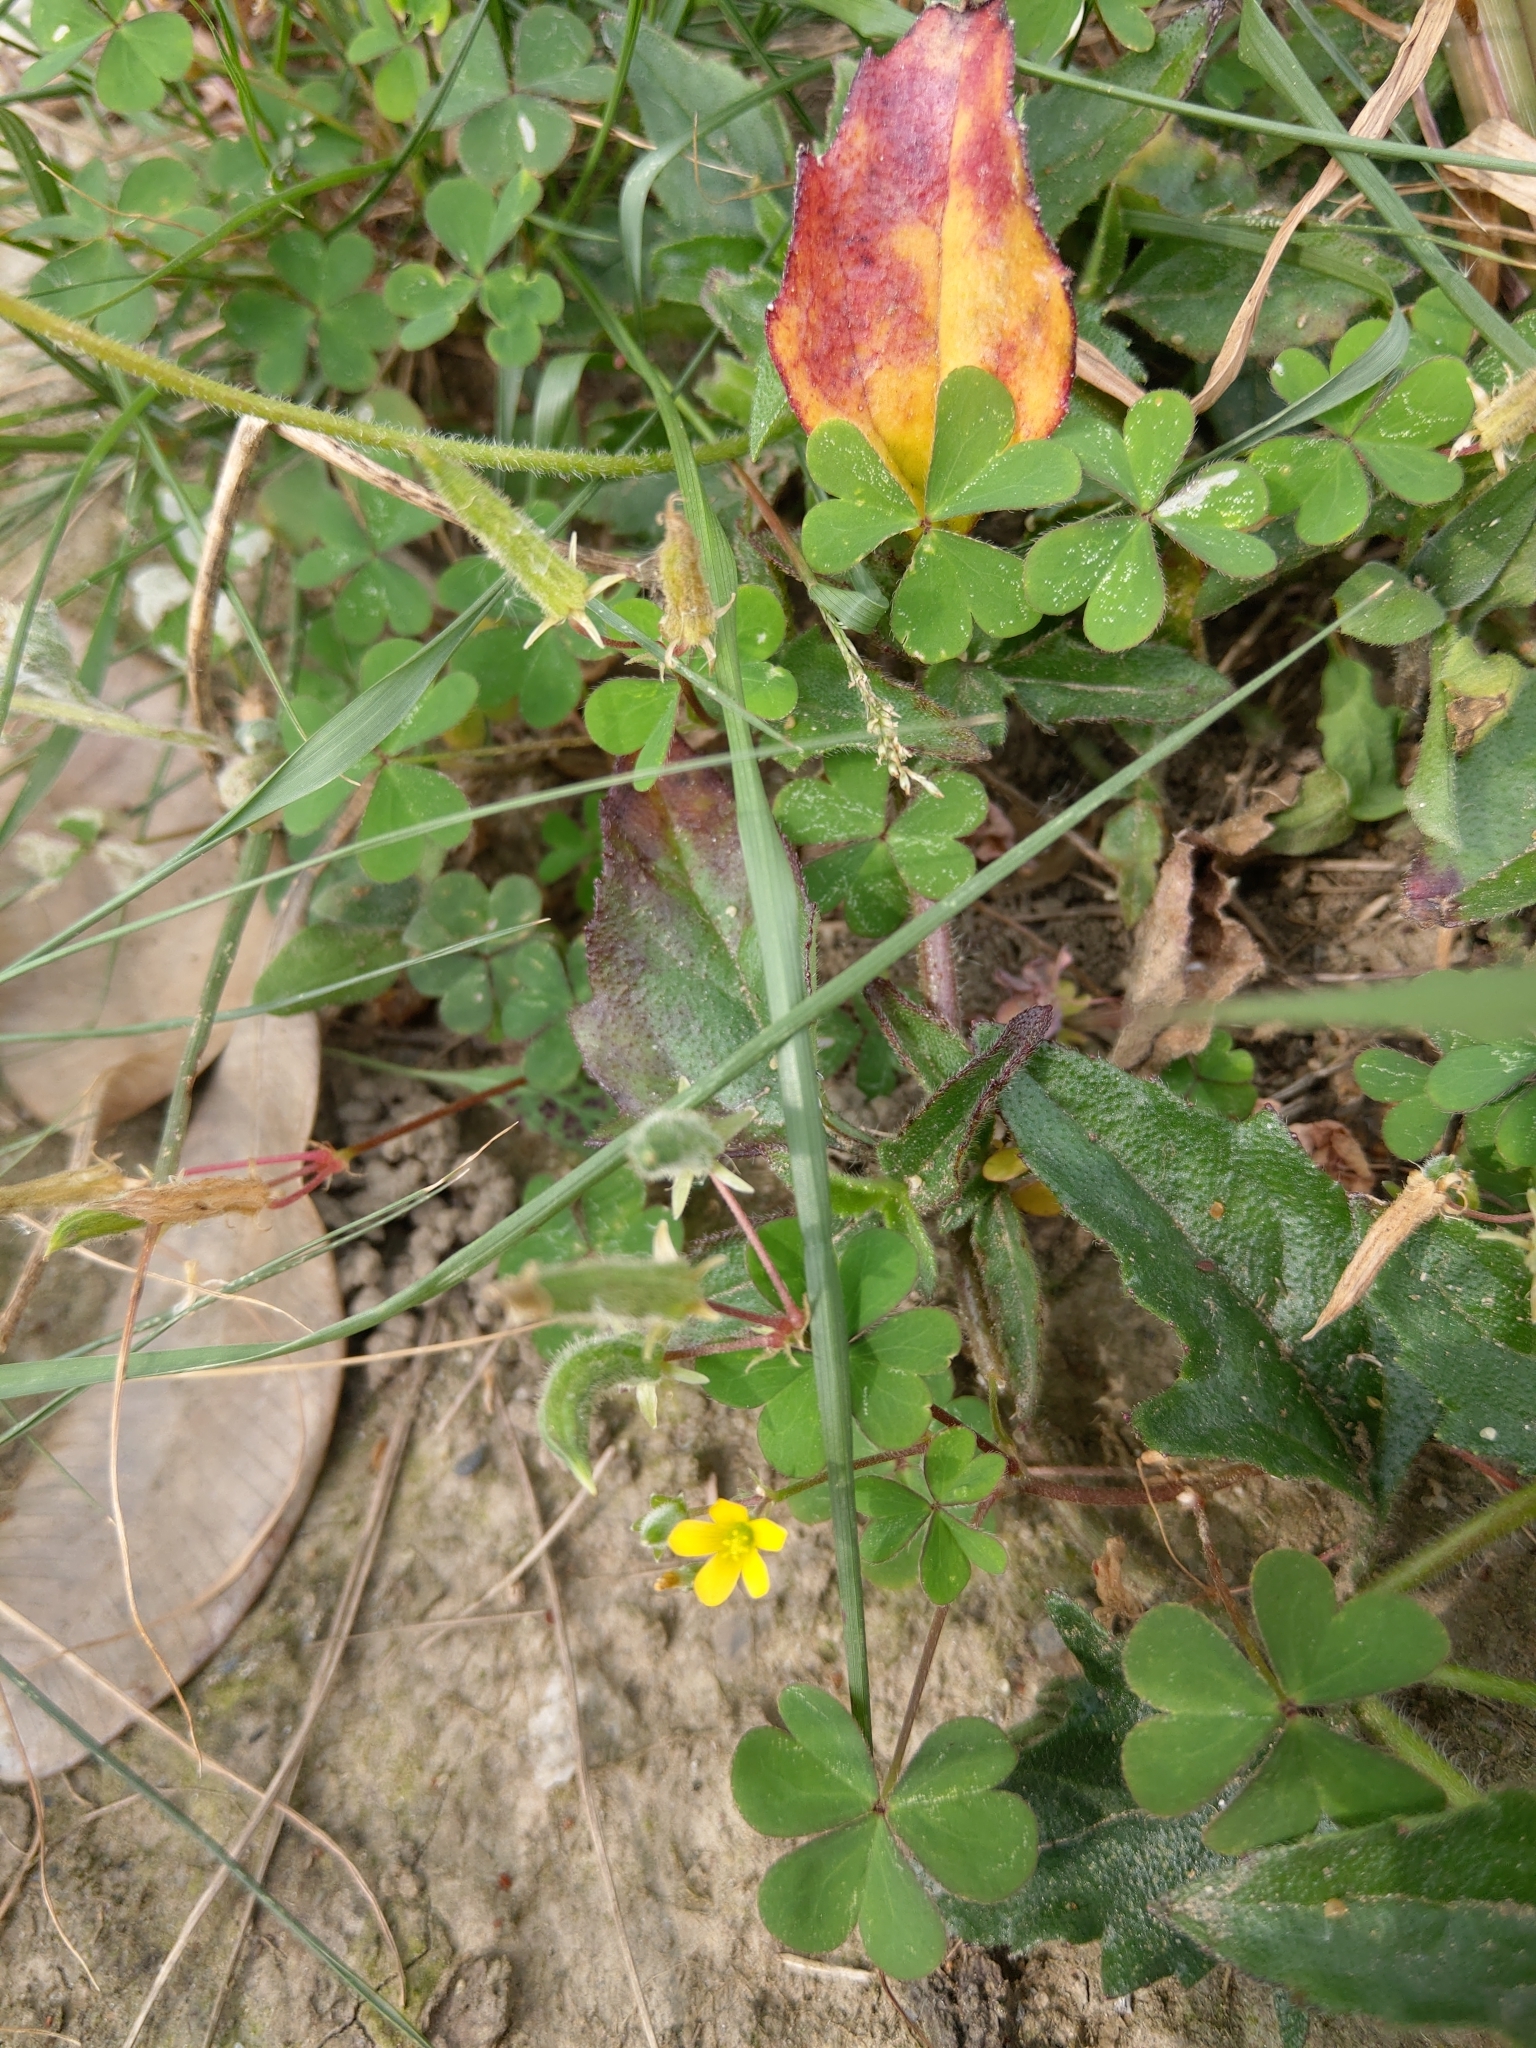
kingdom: Plantae
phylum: Tracheophyta
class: Magnoliopsida
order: Oxalidales
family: Oxalidaceae
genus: Oxalis
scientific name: Oxalis corniculata
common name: Procumbent yellow-sorrel
